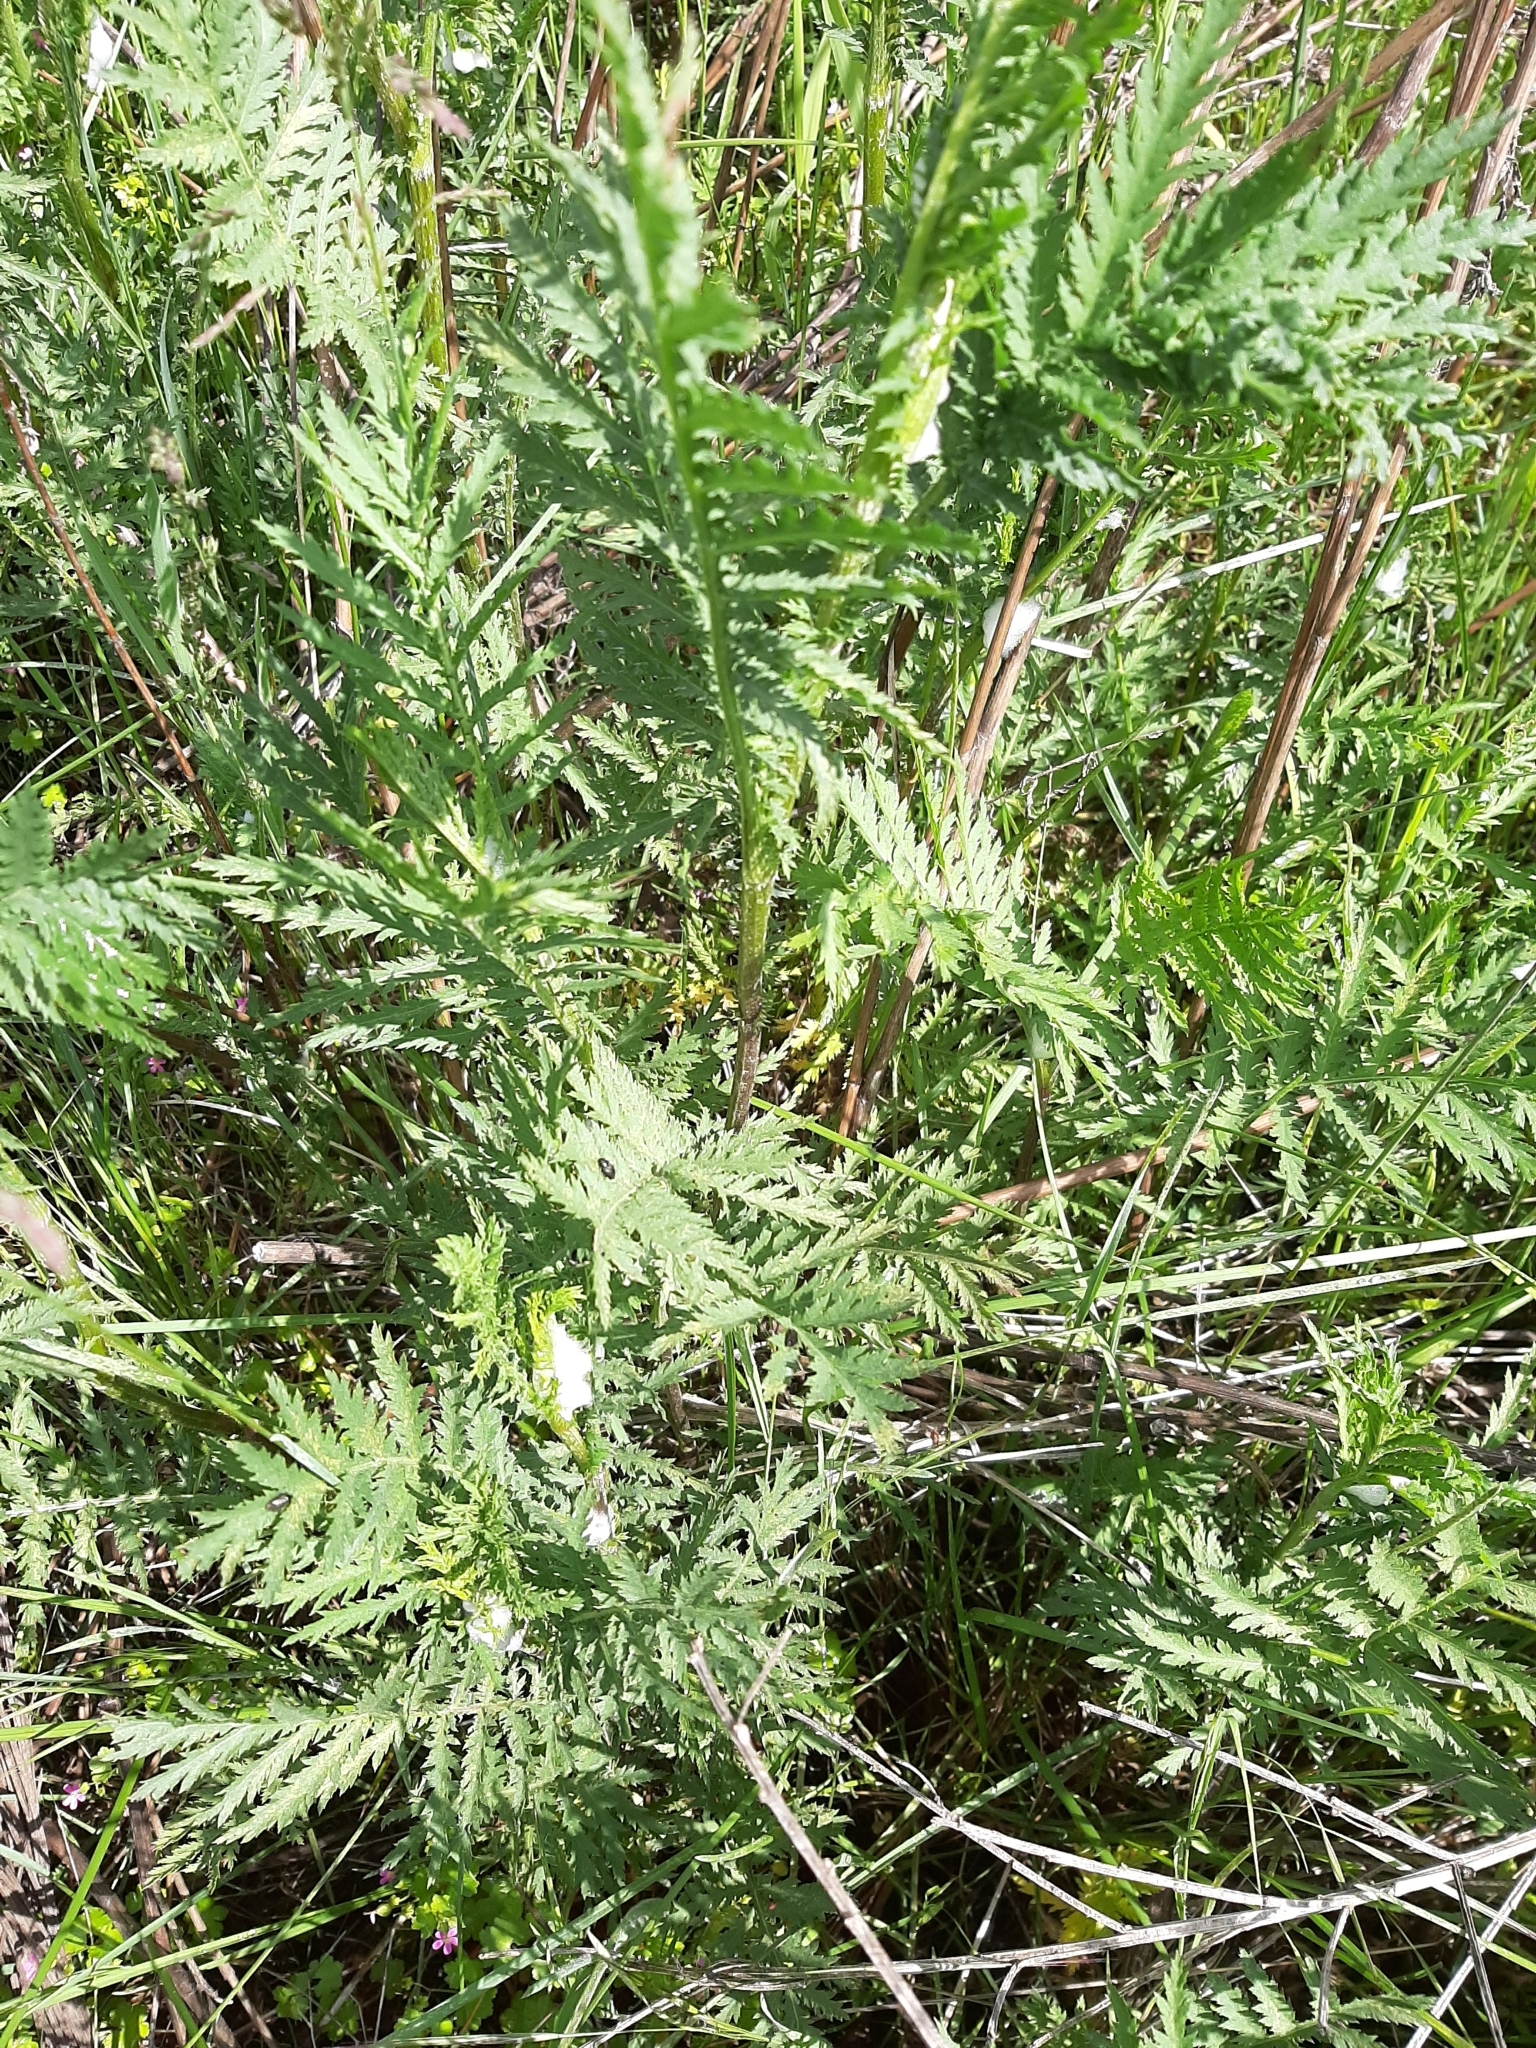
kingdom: Plantae
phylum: Tracheophyta
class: Magnoliopsida
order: Asterales
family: Asteraceae
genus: Tanacetum
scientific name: Tanacetum vulgare
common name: Common tansy
